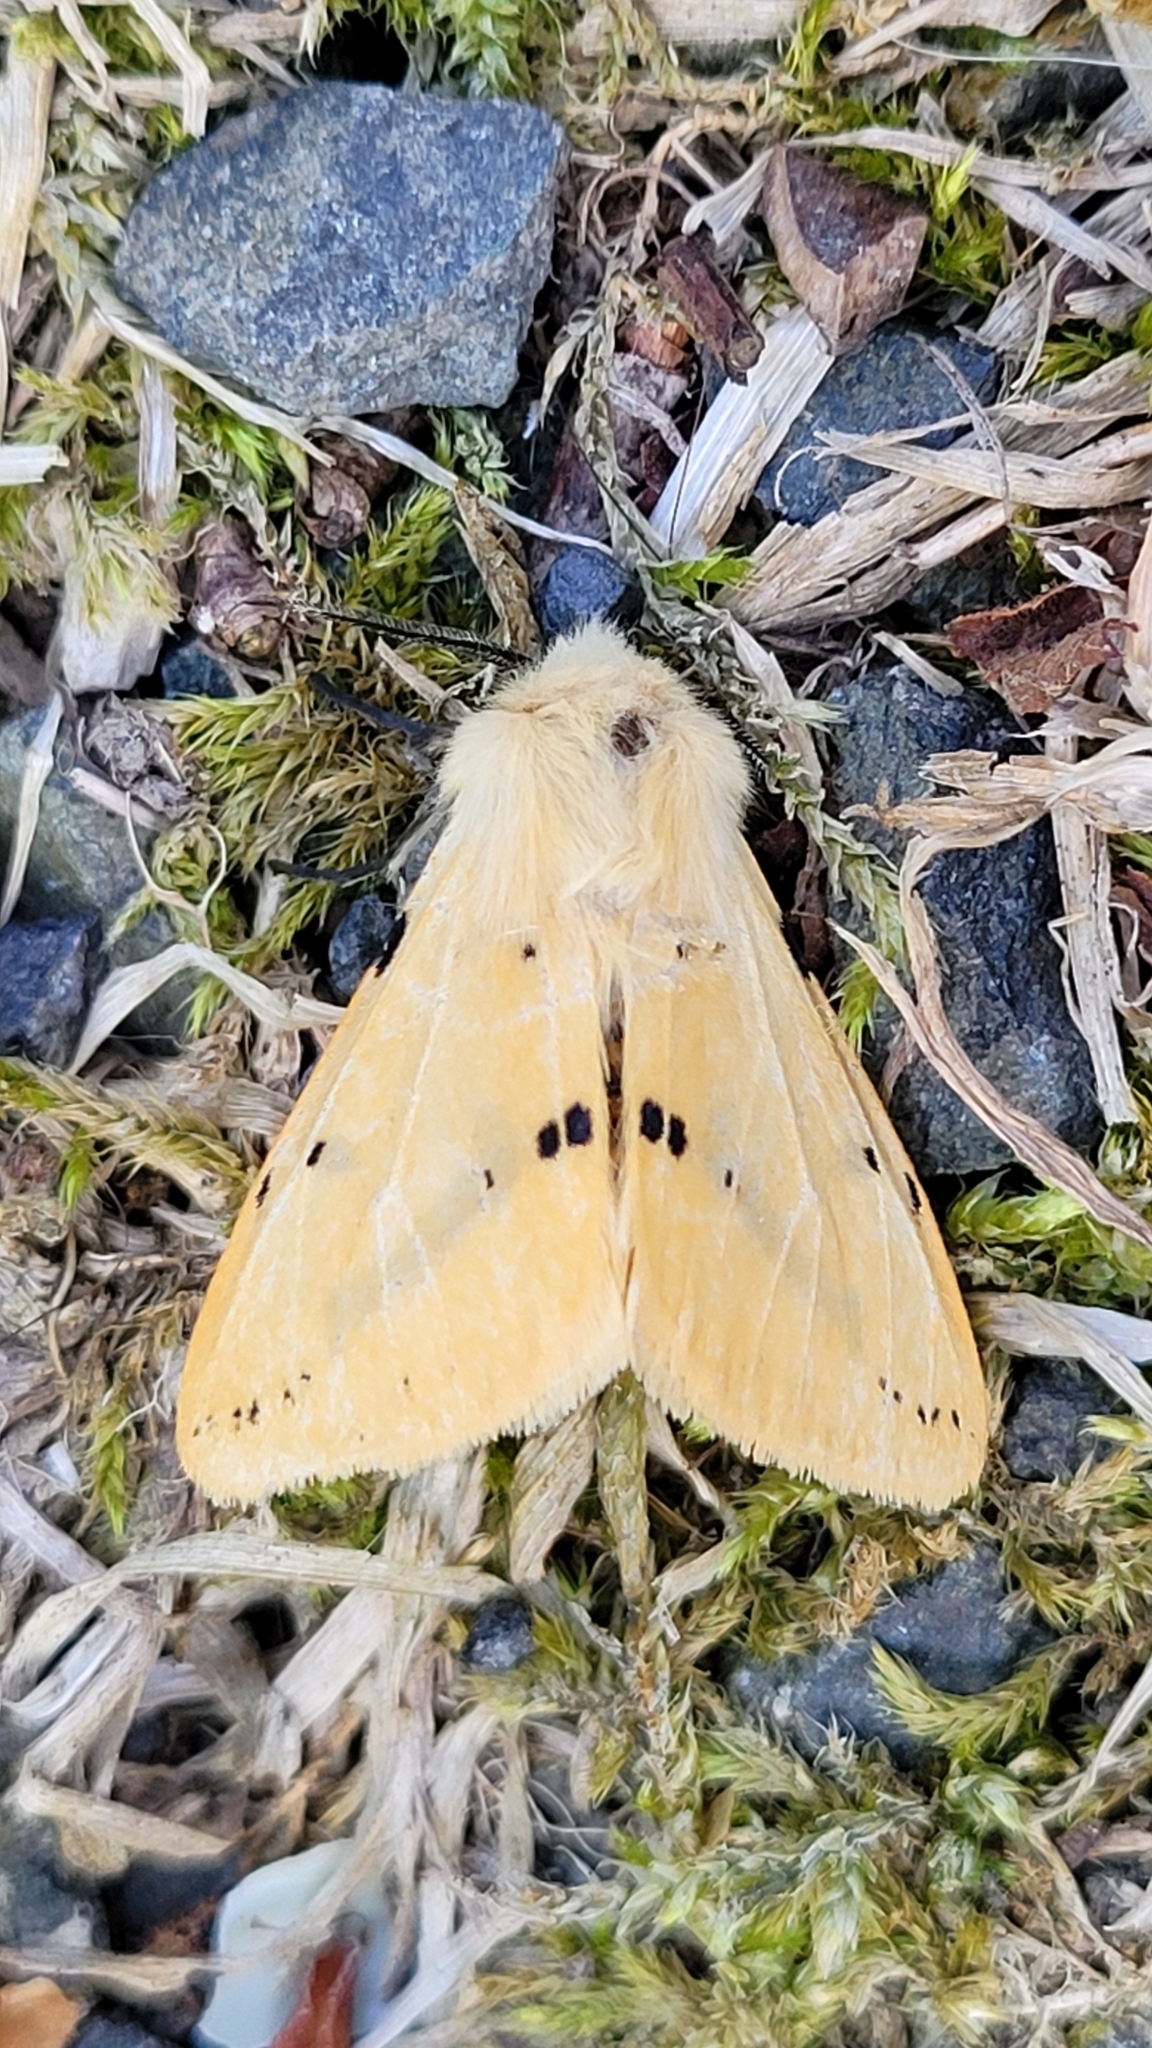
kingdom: Animalia
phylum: Arthropoda
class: Insecta
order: Lepidoptera
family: Erebidae
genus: Spilarctia
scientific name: Spilarctia lutea
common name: Buff ermine
